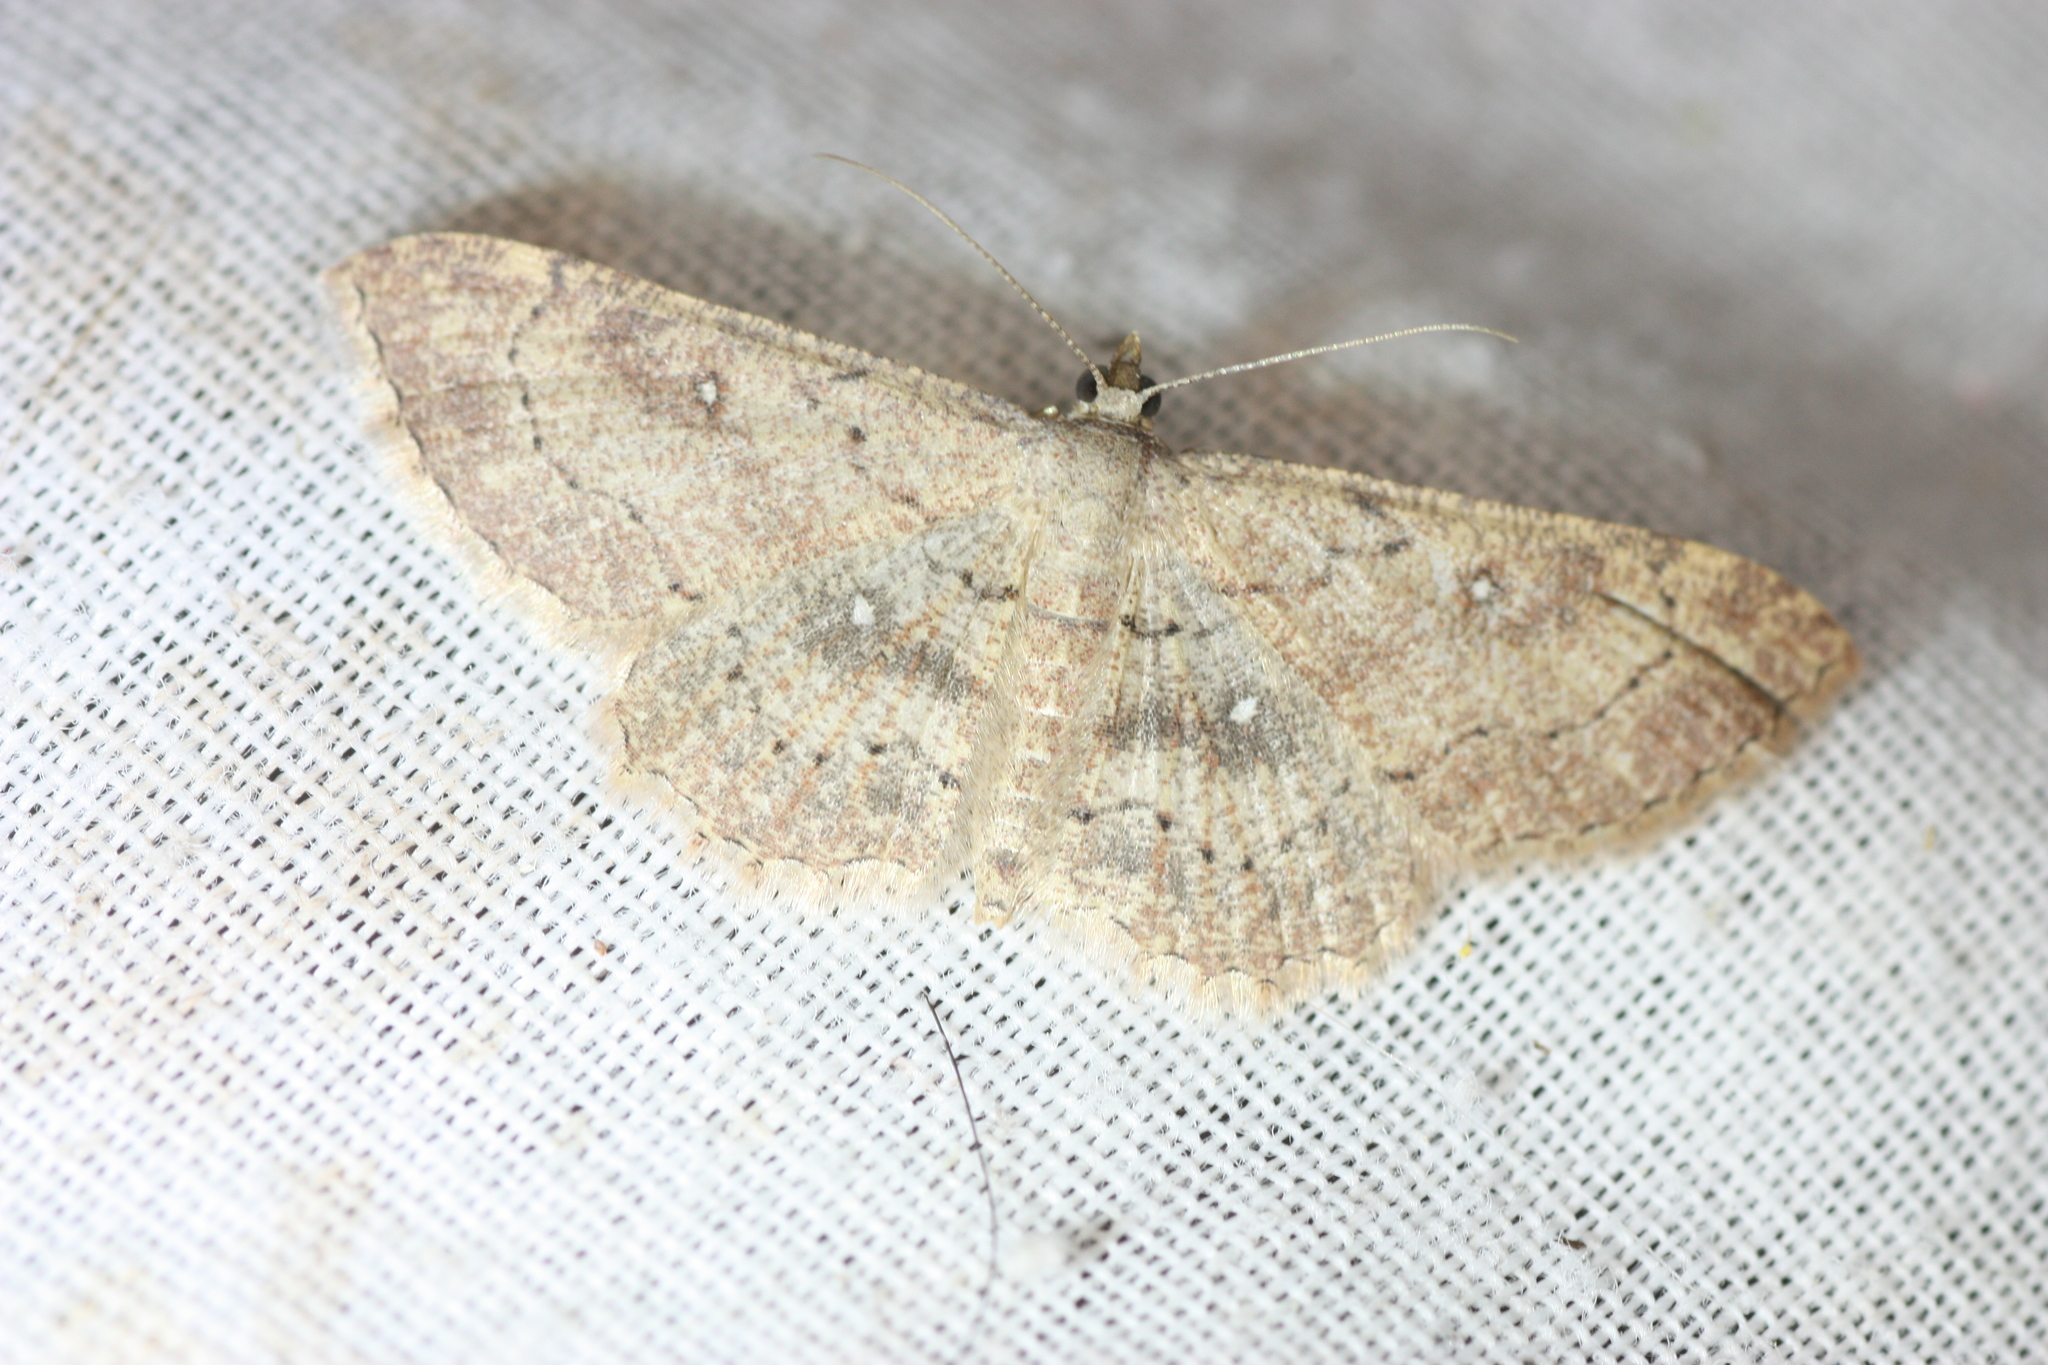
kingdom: Animalia
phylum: Arthropoda
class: Insecta
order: Lepidoptera
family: Geometridae
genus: Cyclophora
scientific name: Cyclophora nanaria
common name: Cankerworm
